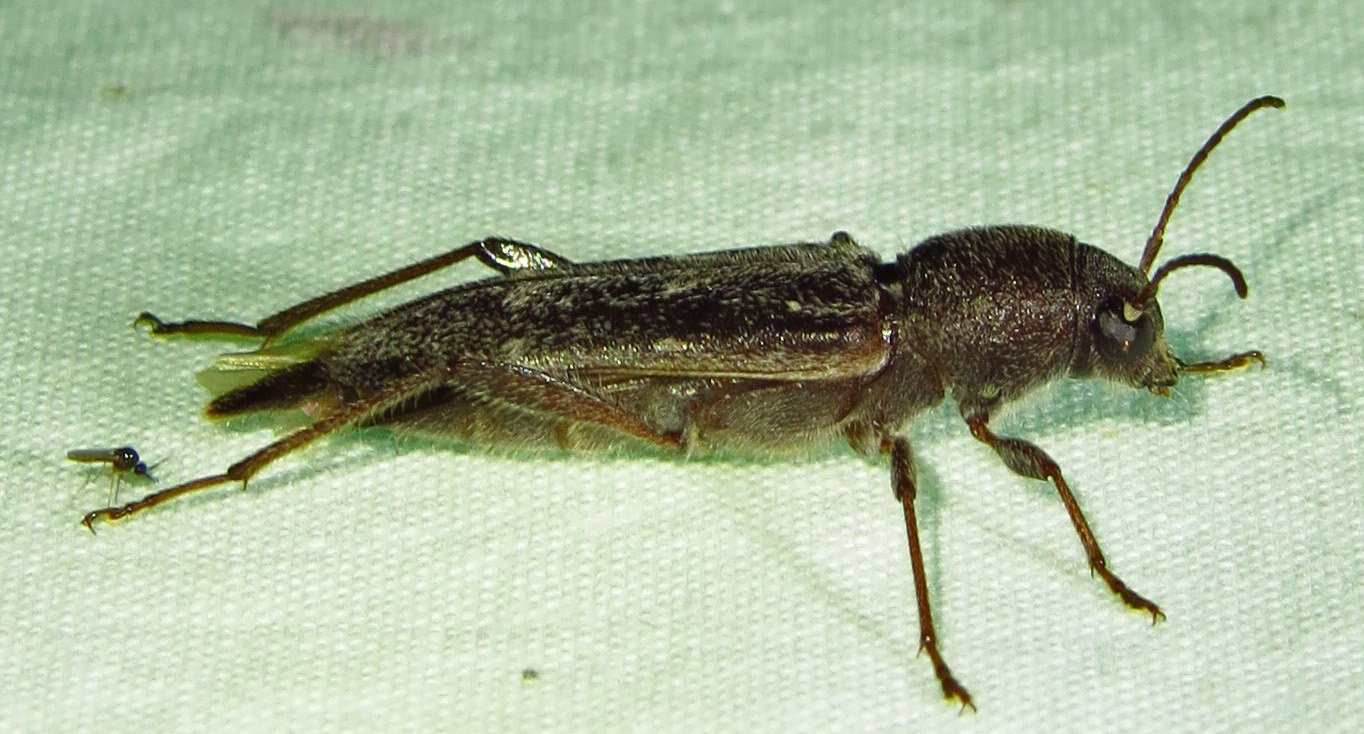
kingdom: Animalia
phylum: Arthropoda
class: Insecta
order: Coleoptera
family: Cerambycidae
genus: Xylotrechus
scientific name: Xylotrechus sagittatus
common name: Arrowhead borer
